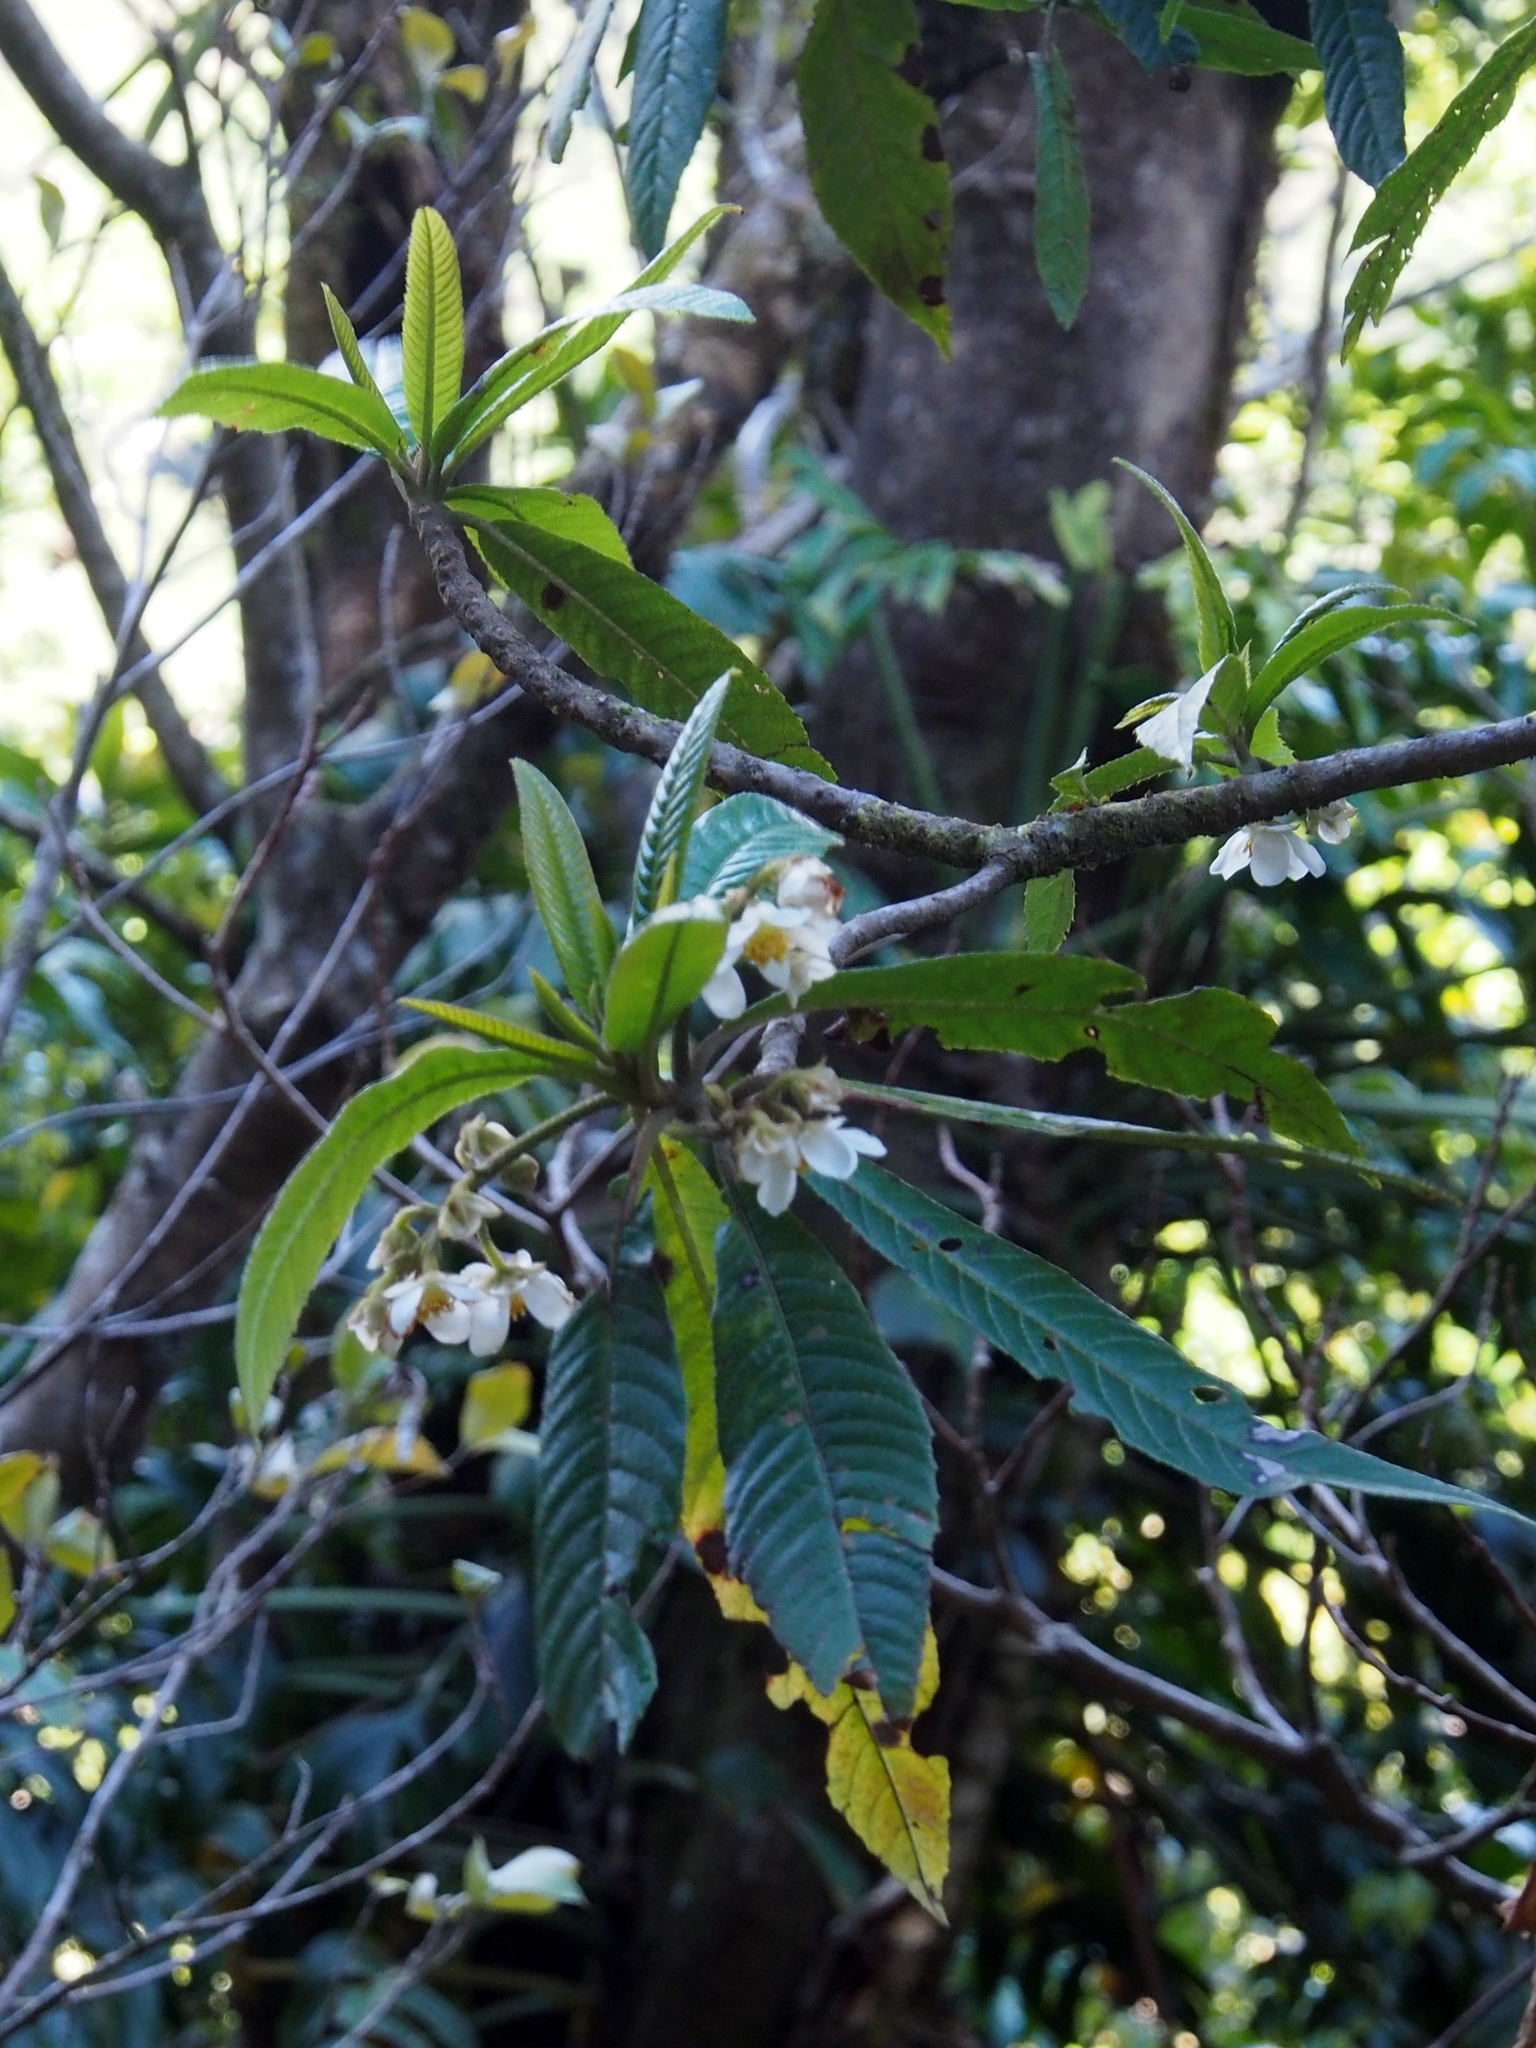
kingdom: Plantae
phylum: Tracheophyta
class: Magnoliopsida
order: Ericales
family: Actinidiaceae
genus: Saurauia
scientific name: Saurauia montana
